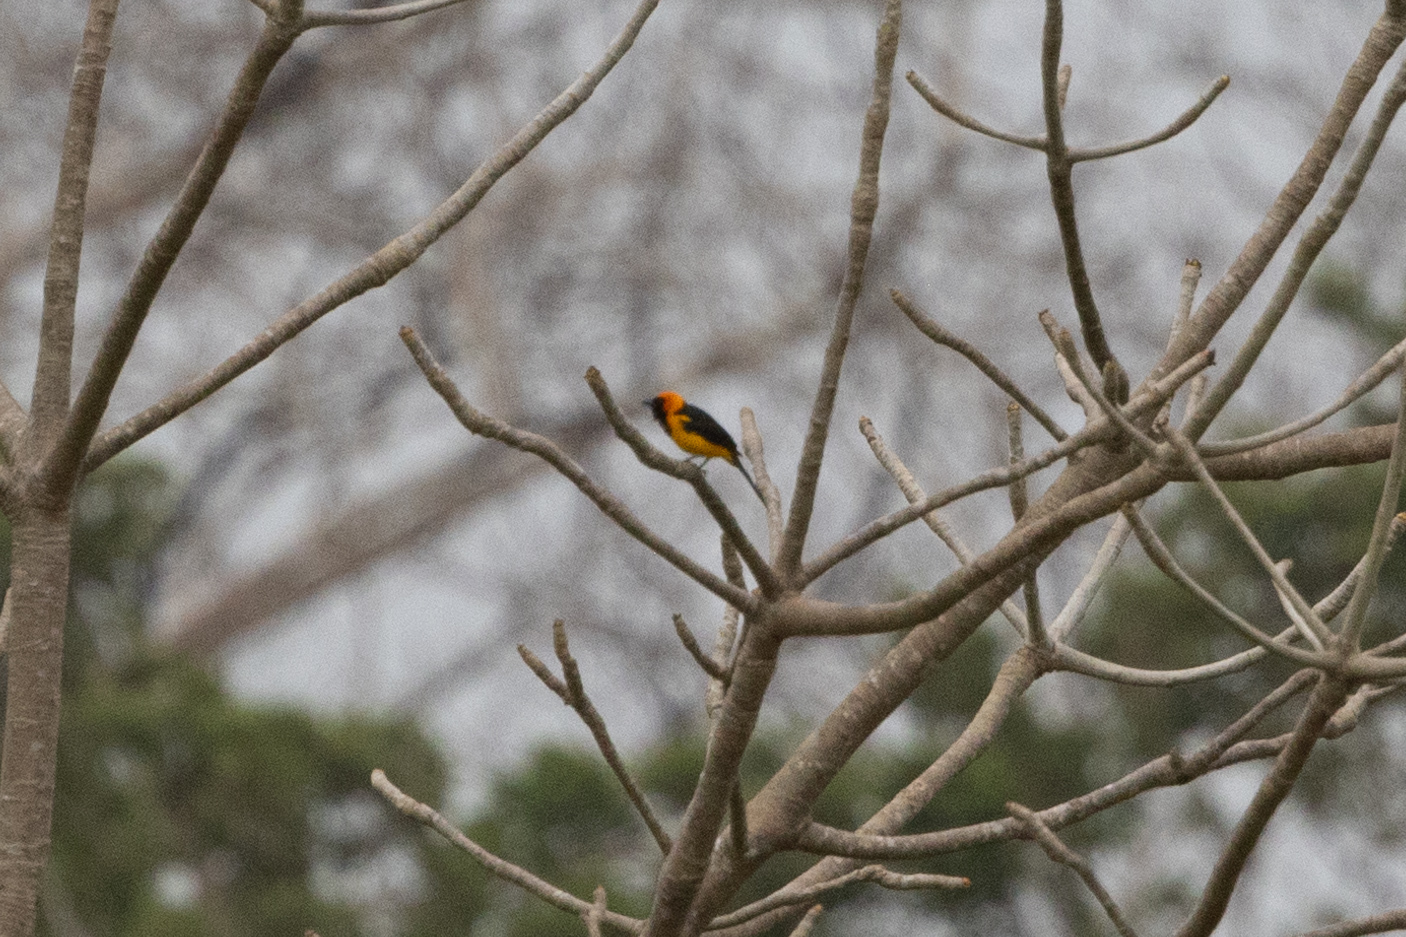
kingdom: Animalia
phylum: Chordata
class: Aves
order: Passeriformes
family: Icteridae
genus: Icterus
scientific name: Icterus auricapillus
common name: Orange-crowned oriole
